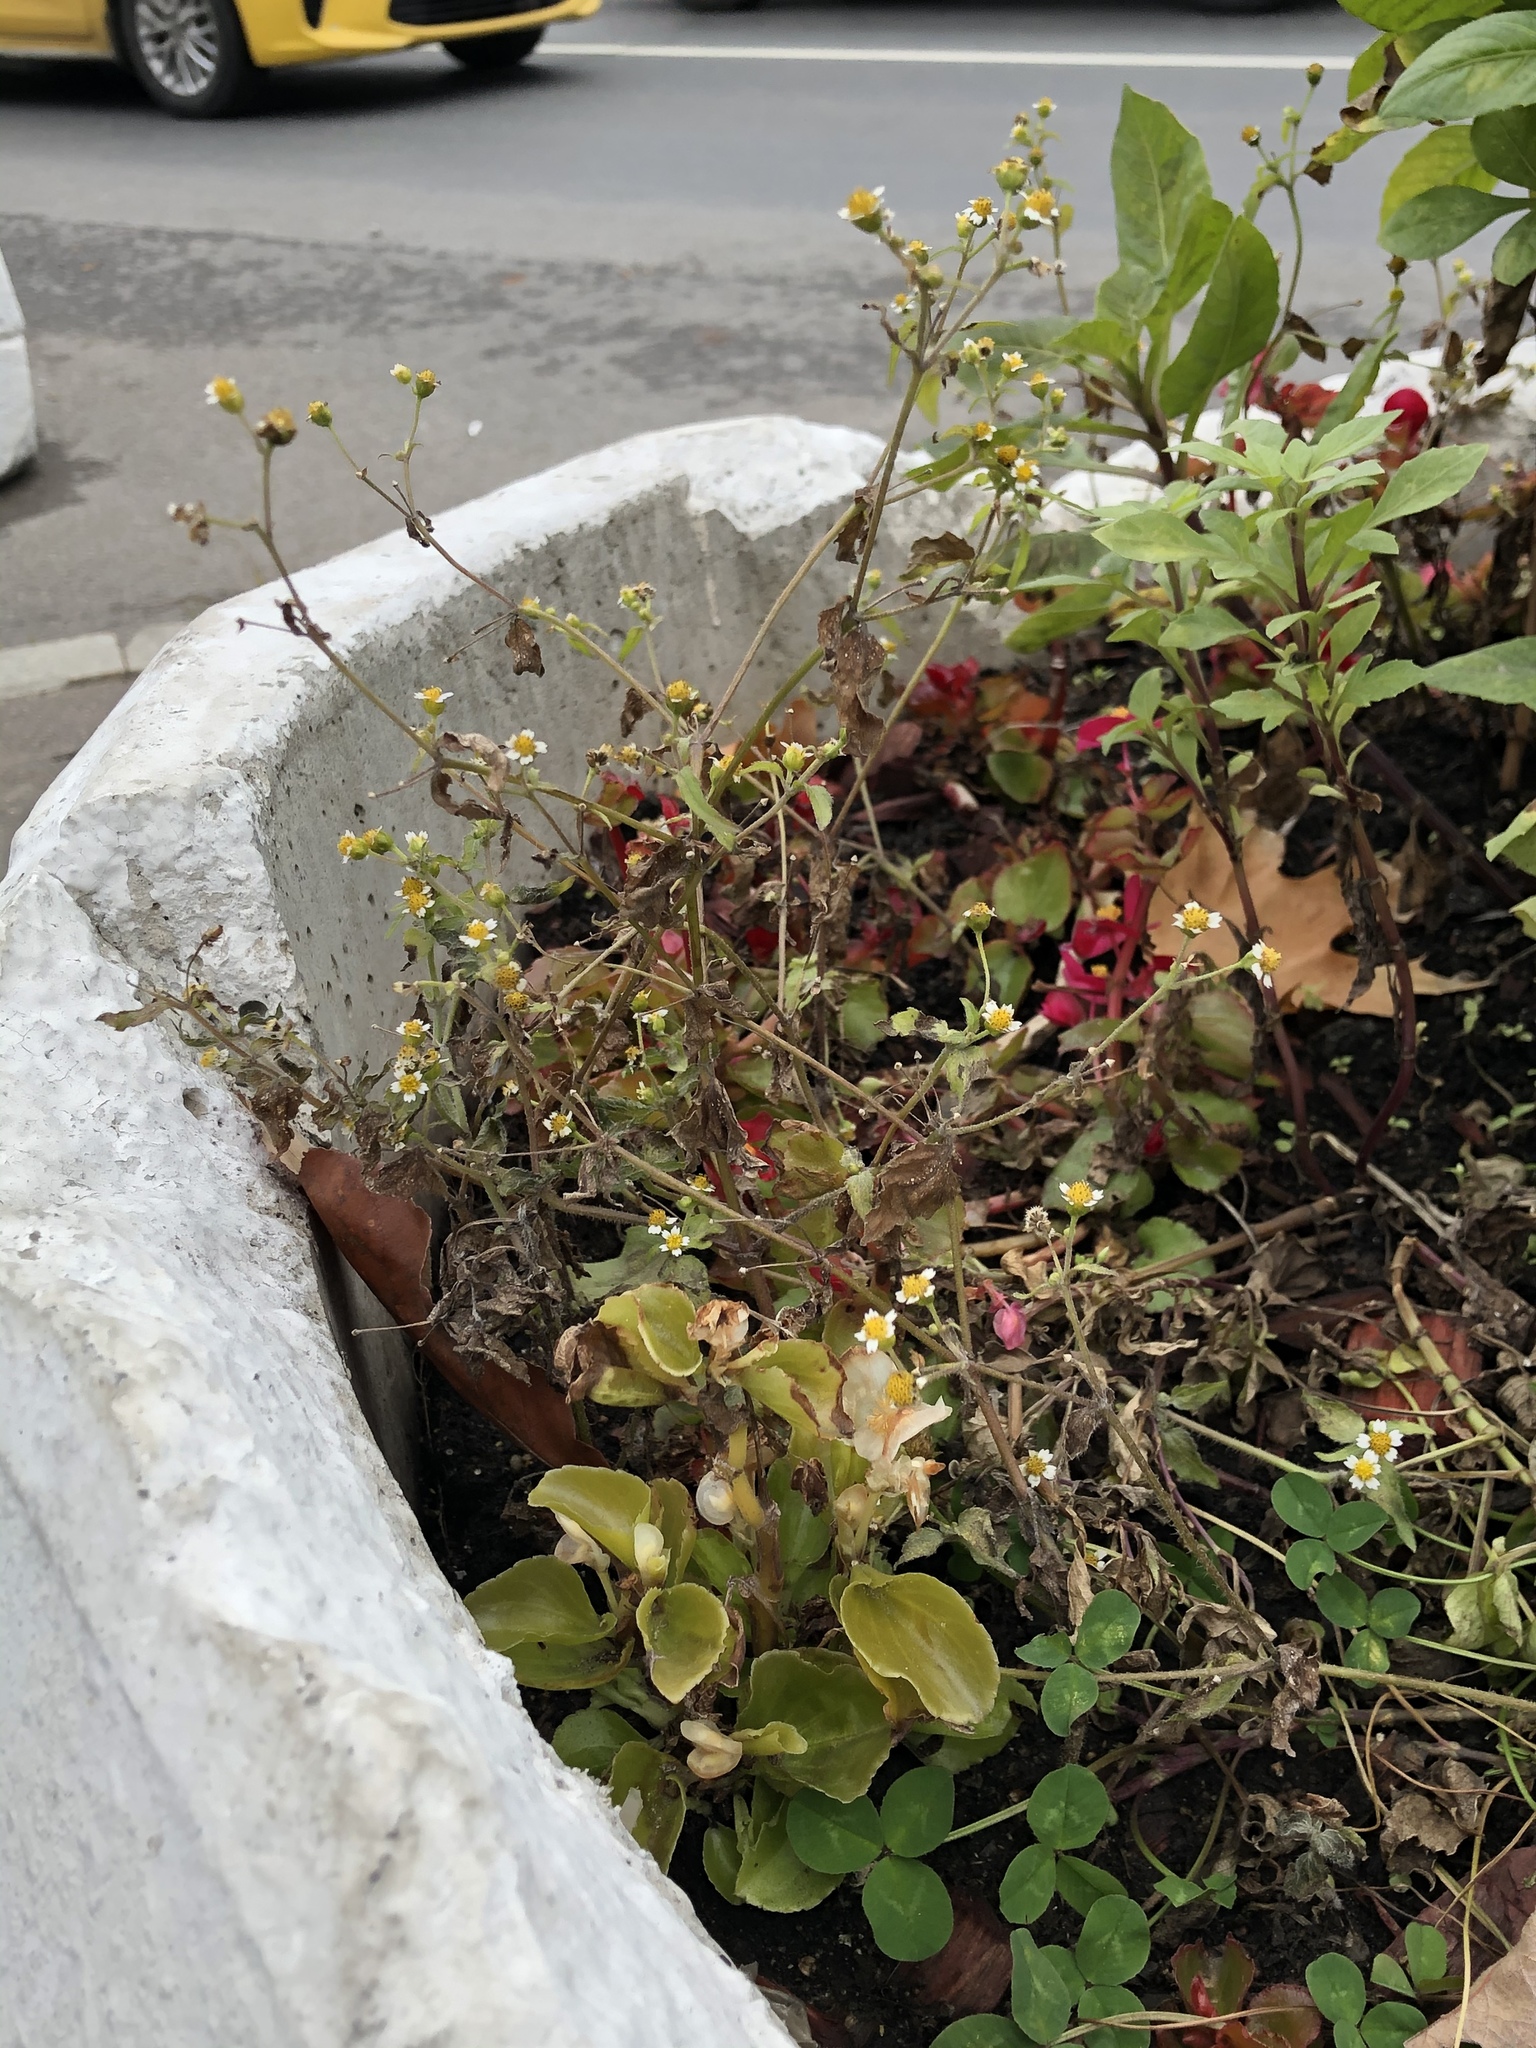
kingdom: Plantae
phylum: Tracheophyta
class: Magnoliopsida
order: Asterales
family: Asteraceae
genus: Galinsoga
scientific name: Galinsoga parviflora
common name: Gallant soldier
